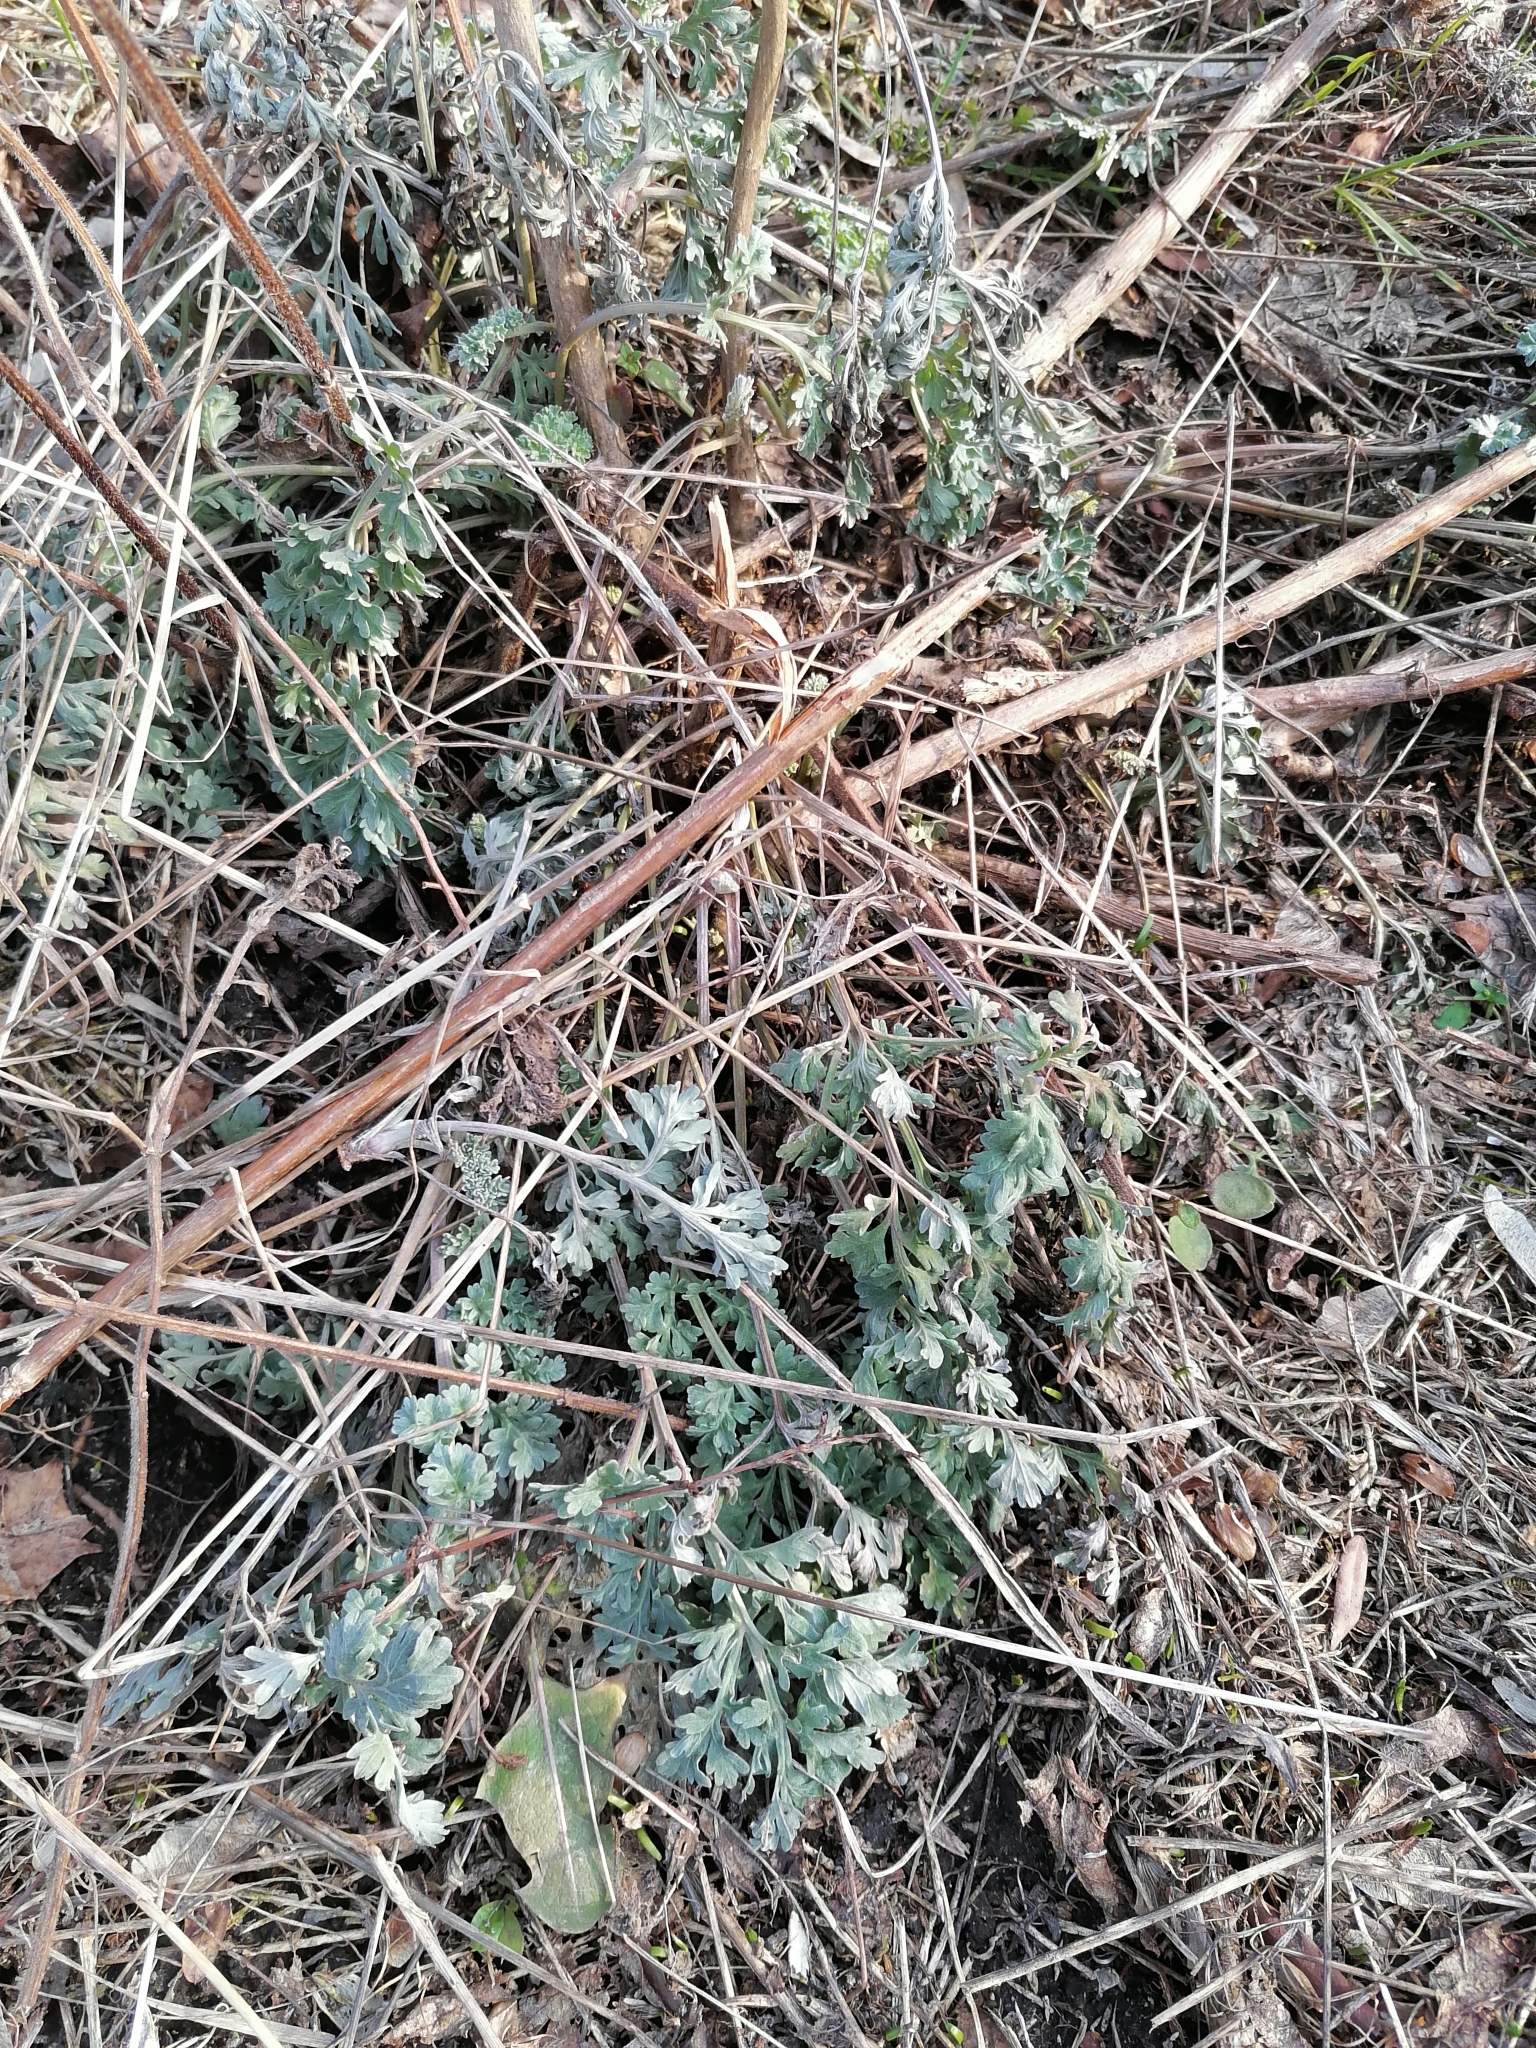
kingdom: Plantae
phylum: Tracheophyta
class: Magnoliopsida
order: Asterales
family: Asteraceae
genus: Artemisia
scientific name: Artemisia absinthium
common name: Wormwood
